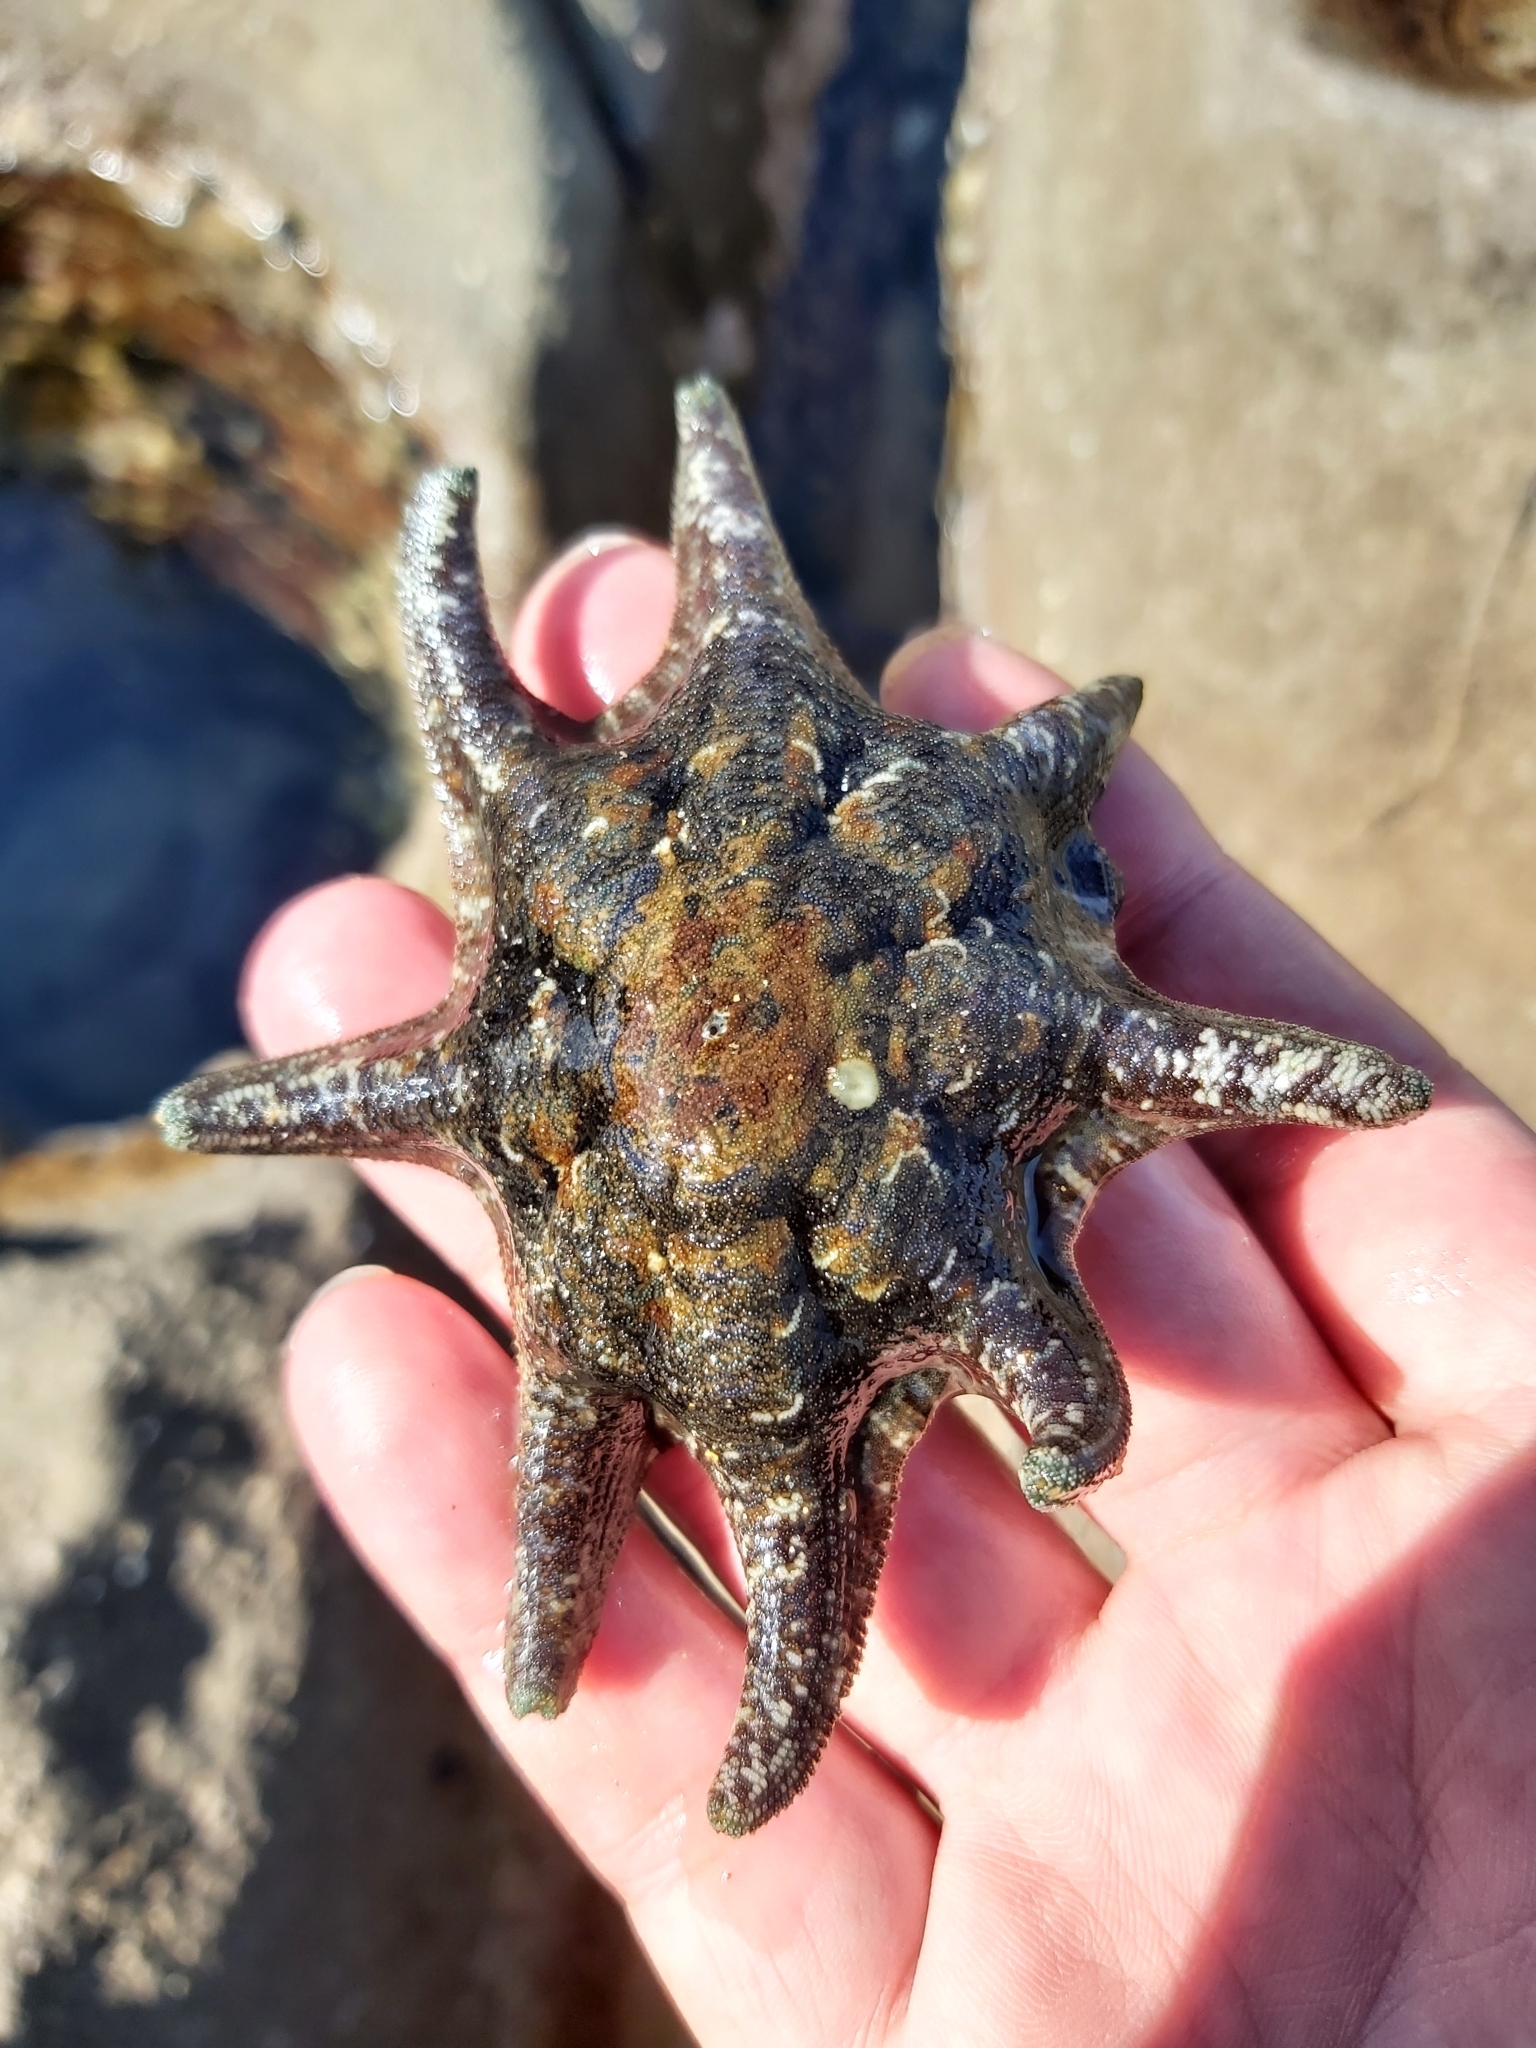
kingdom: Animalia
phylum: Echinodermata
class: Asteroidea
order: Valvatida
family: Asterinidae
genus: Meridiastra
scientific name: Meridiastra calcar
